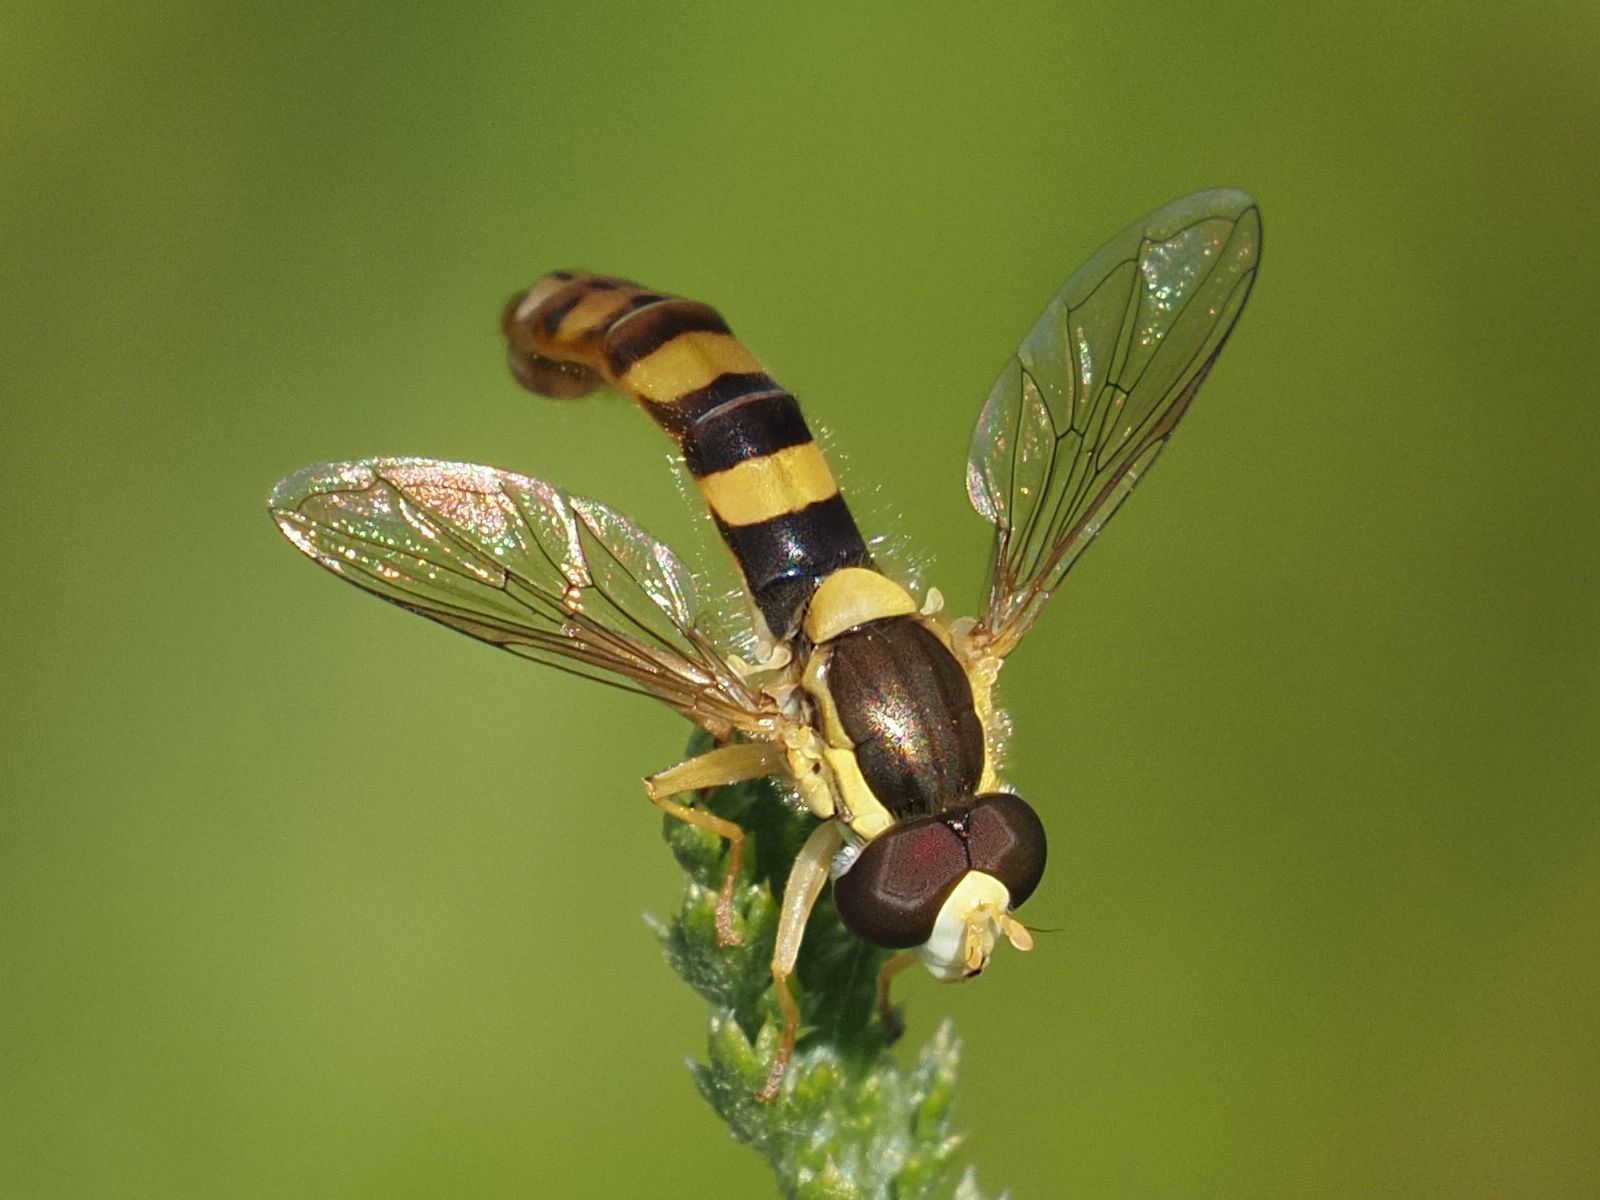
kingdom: Animalia
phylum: Arthropoda
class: Insecta
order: Diptera
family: Syrphidae
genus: Sphaerophoria
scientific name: Sphaerophoria scripta
